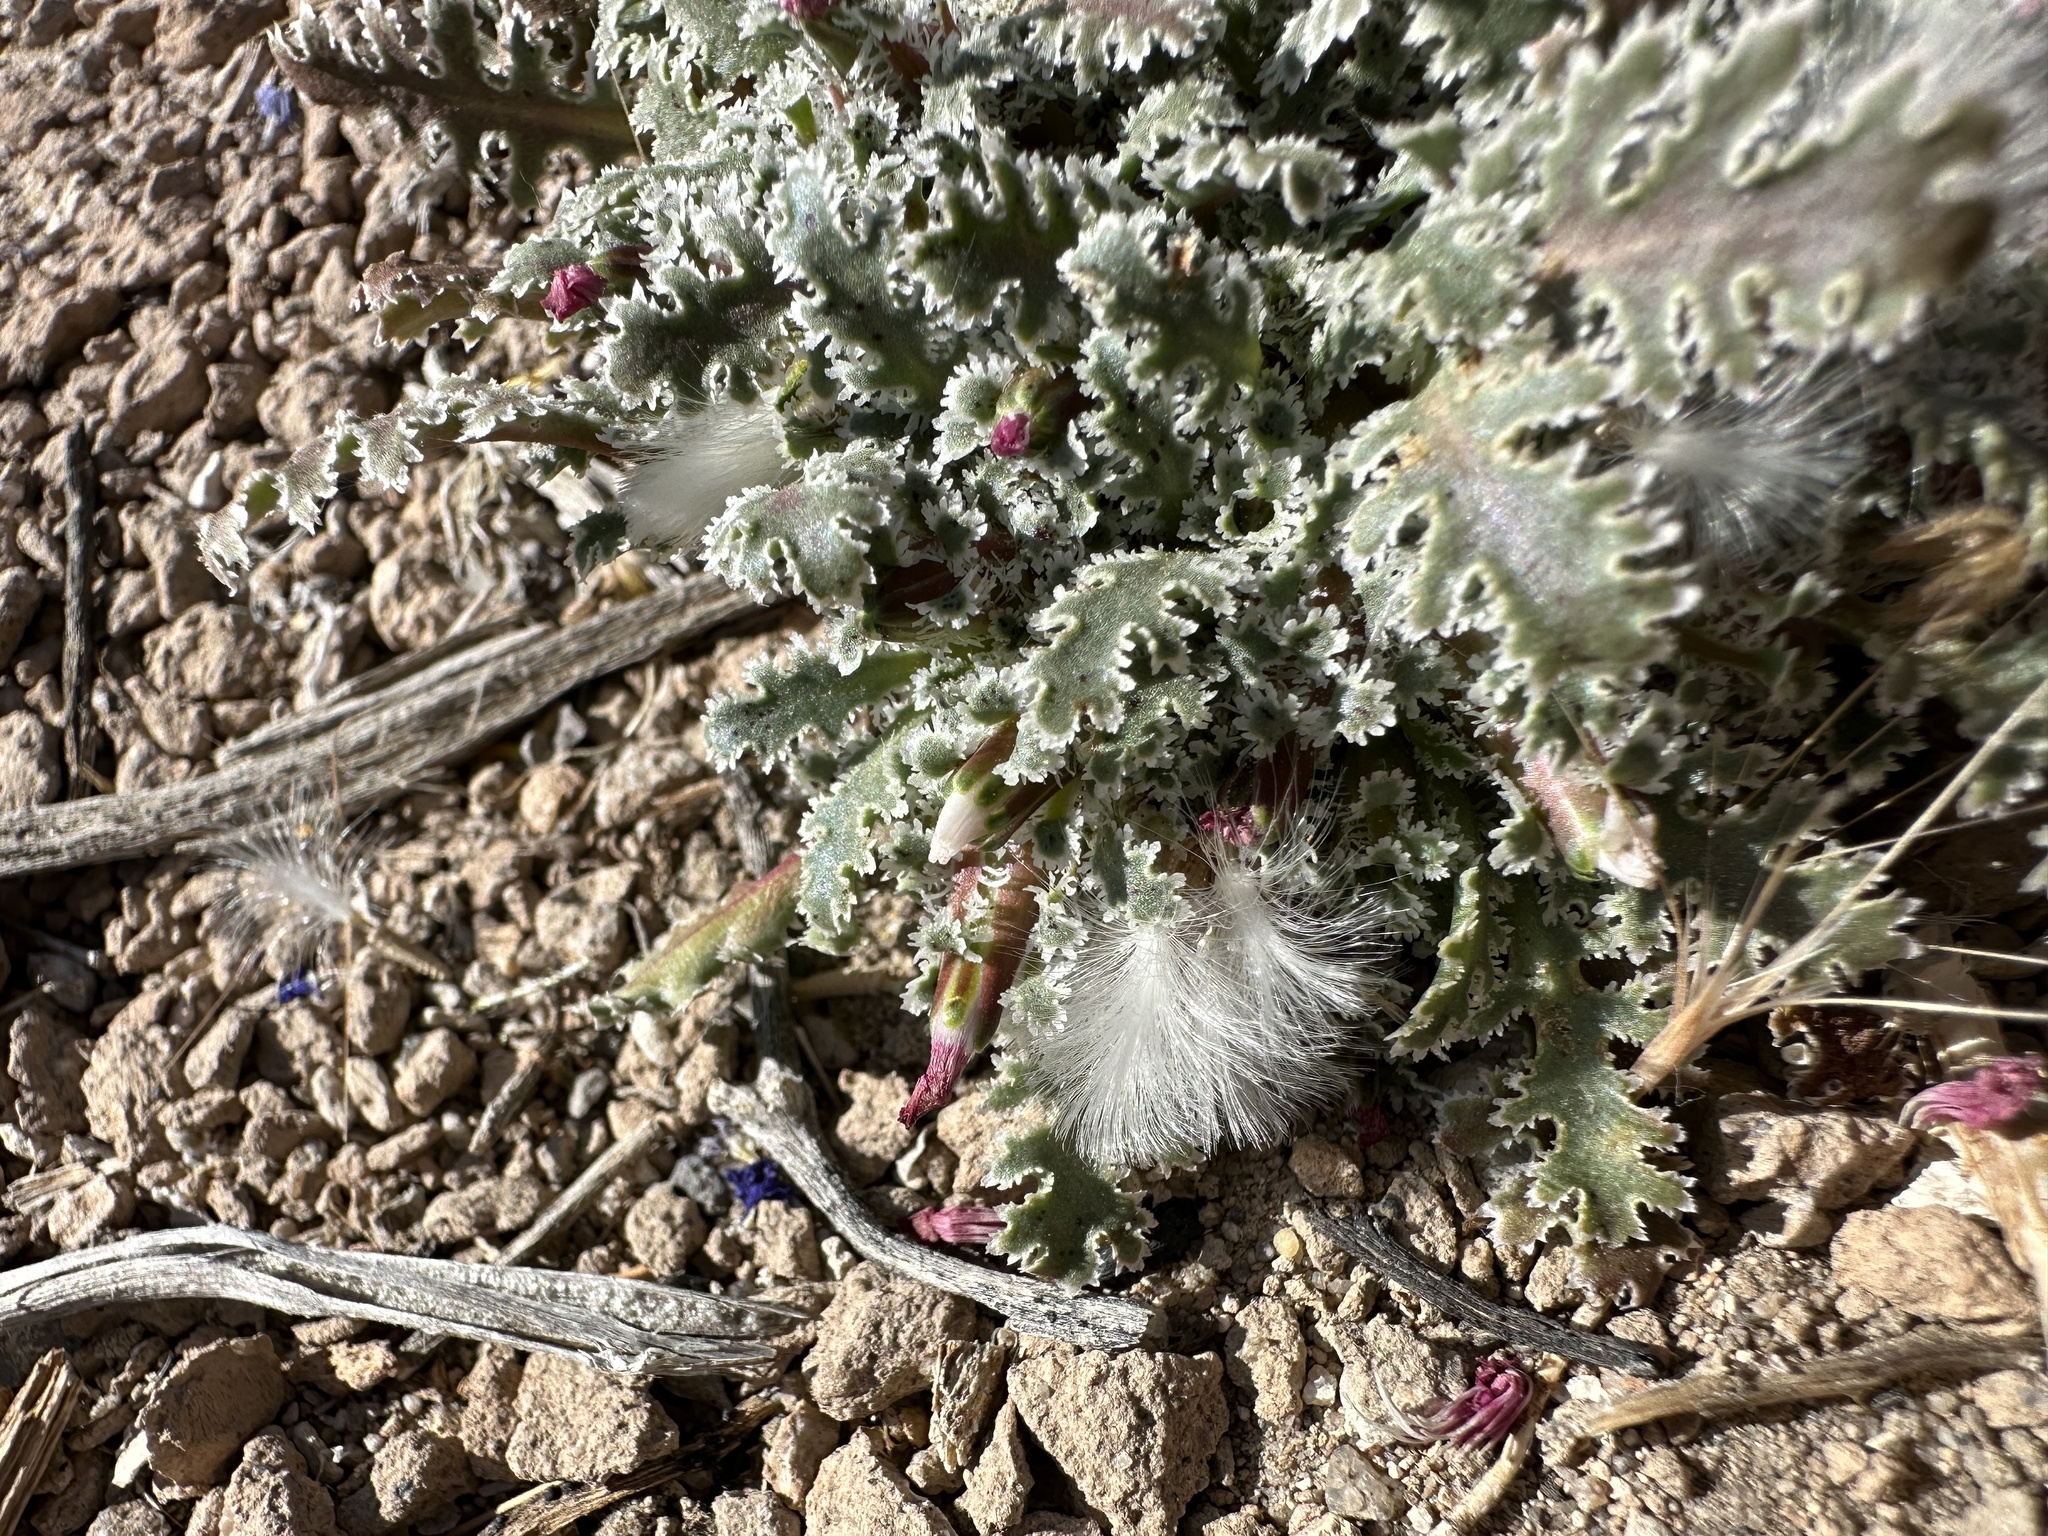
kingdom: Plantae
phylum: Tracheophyta
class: Magnoliopsida
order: Asterales
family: Asteraceae
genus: Glyptopleura
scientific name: Glyptopleura marginata
